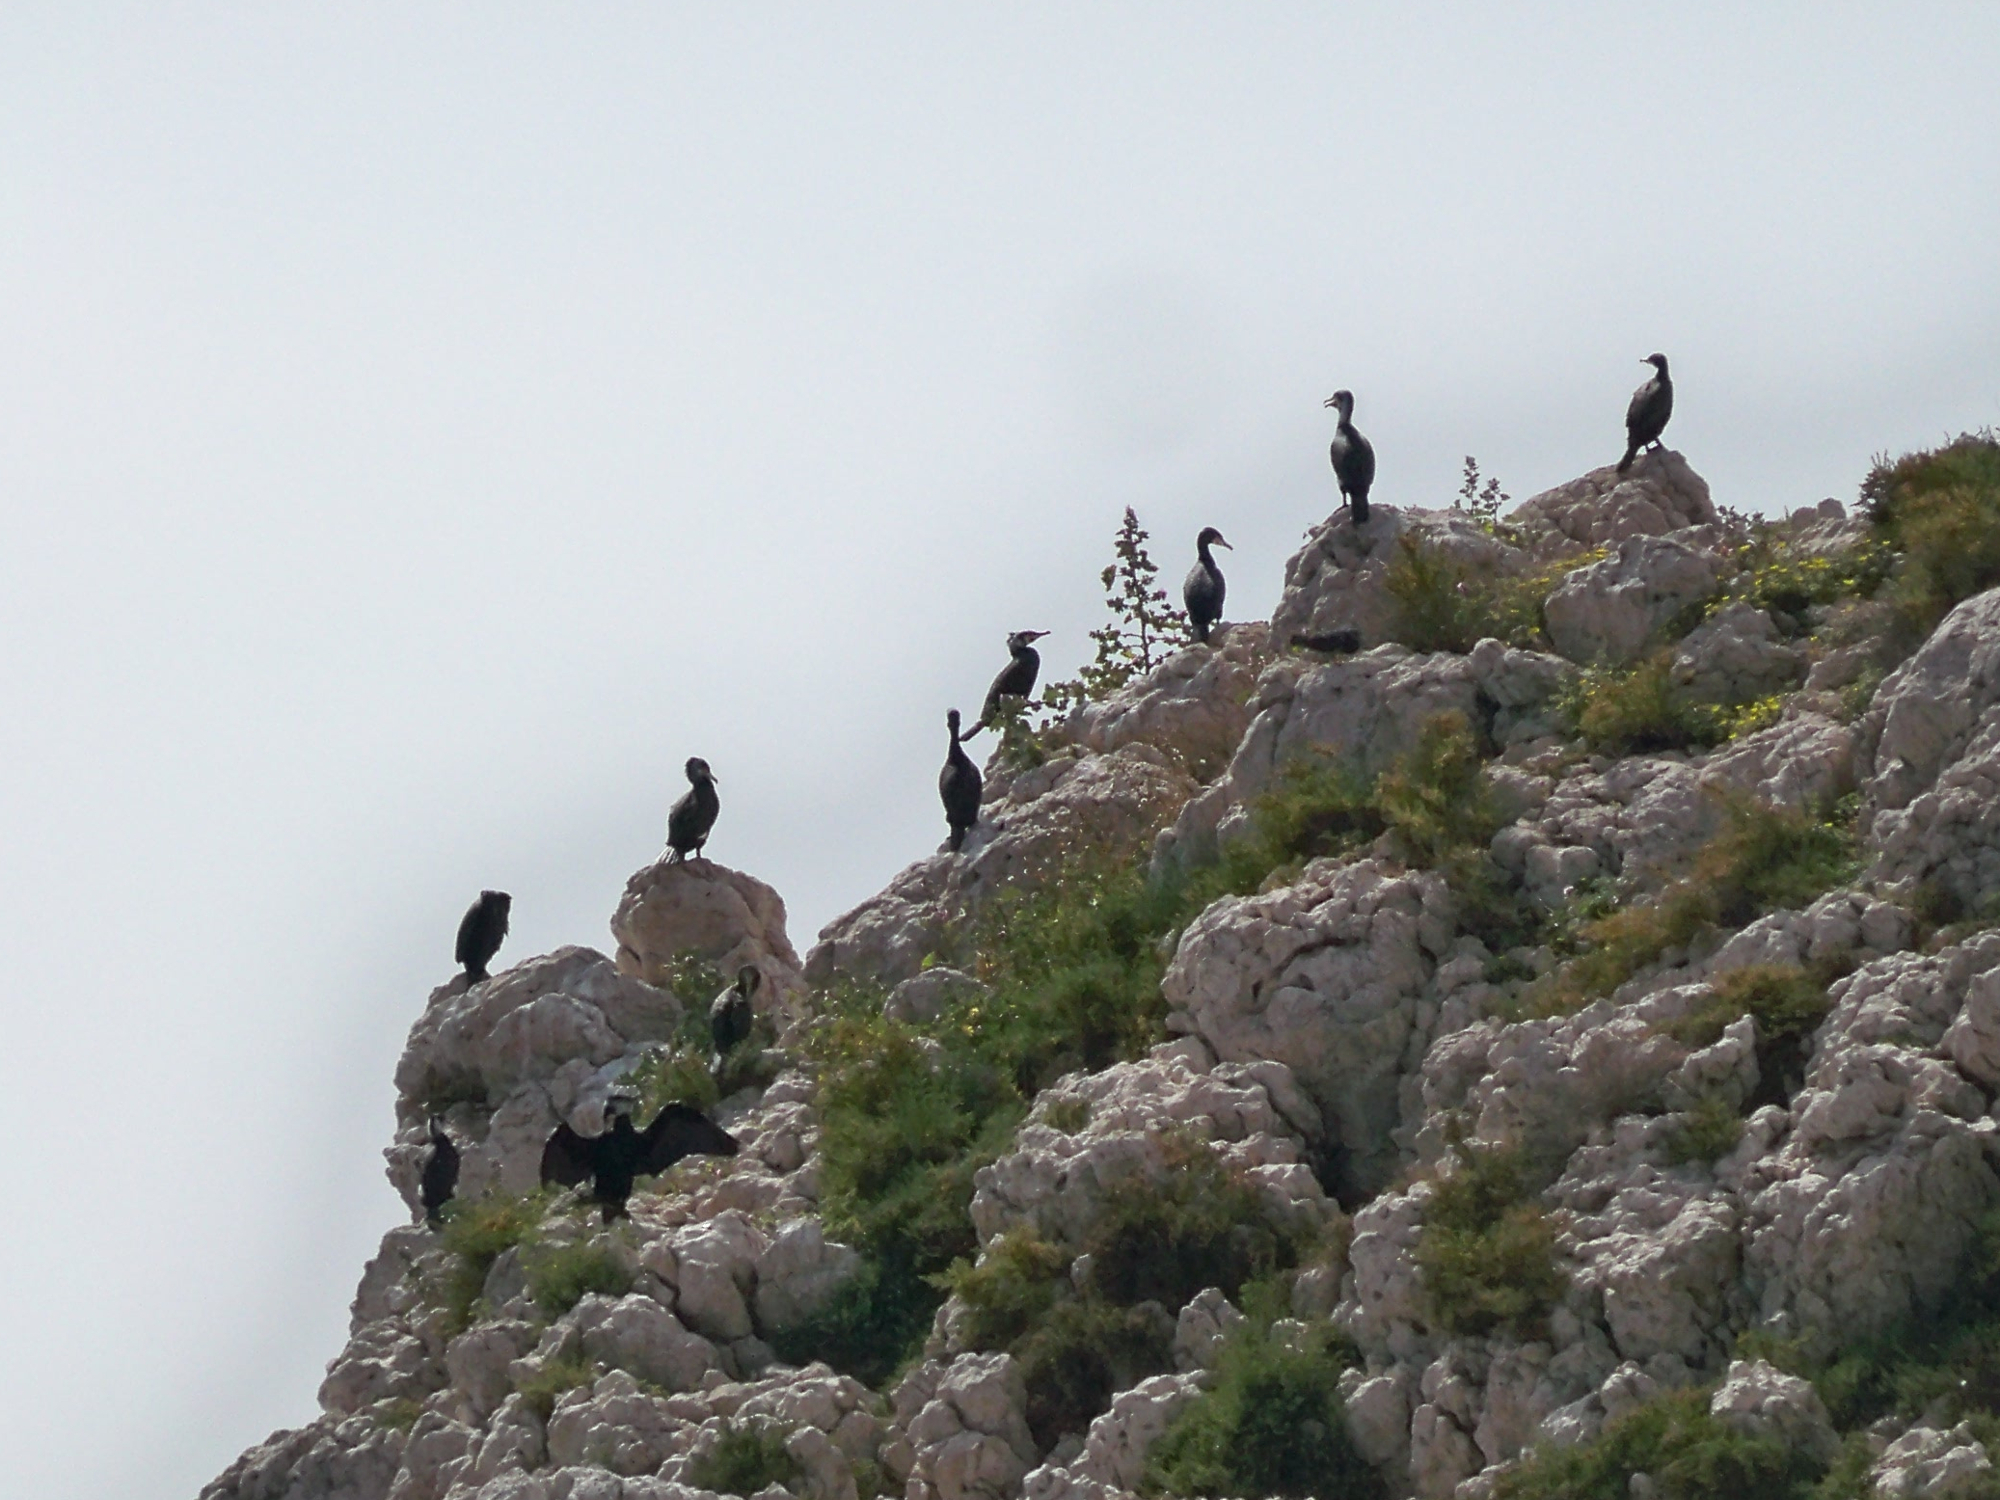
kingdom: Animalia
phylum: Chordata
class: Aves
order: Suliformes
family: Phalacrocoracidae
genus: Phalacrocorax
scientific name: Phalacrocorax carbo
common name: Great cormorant
